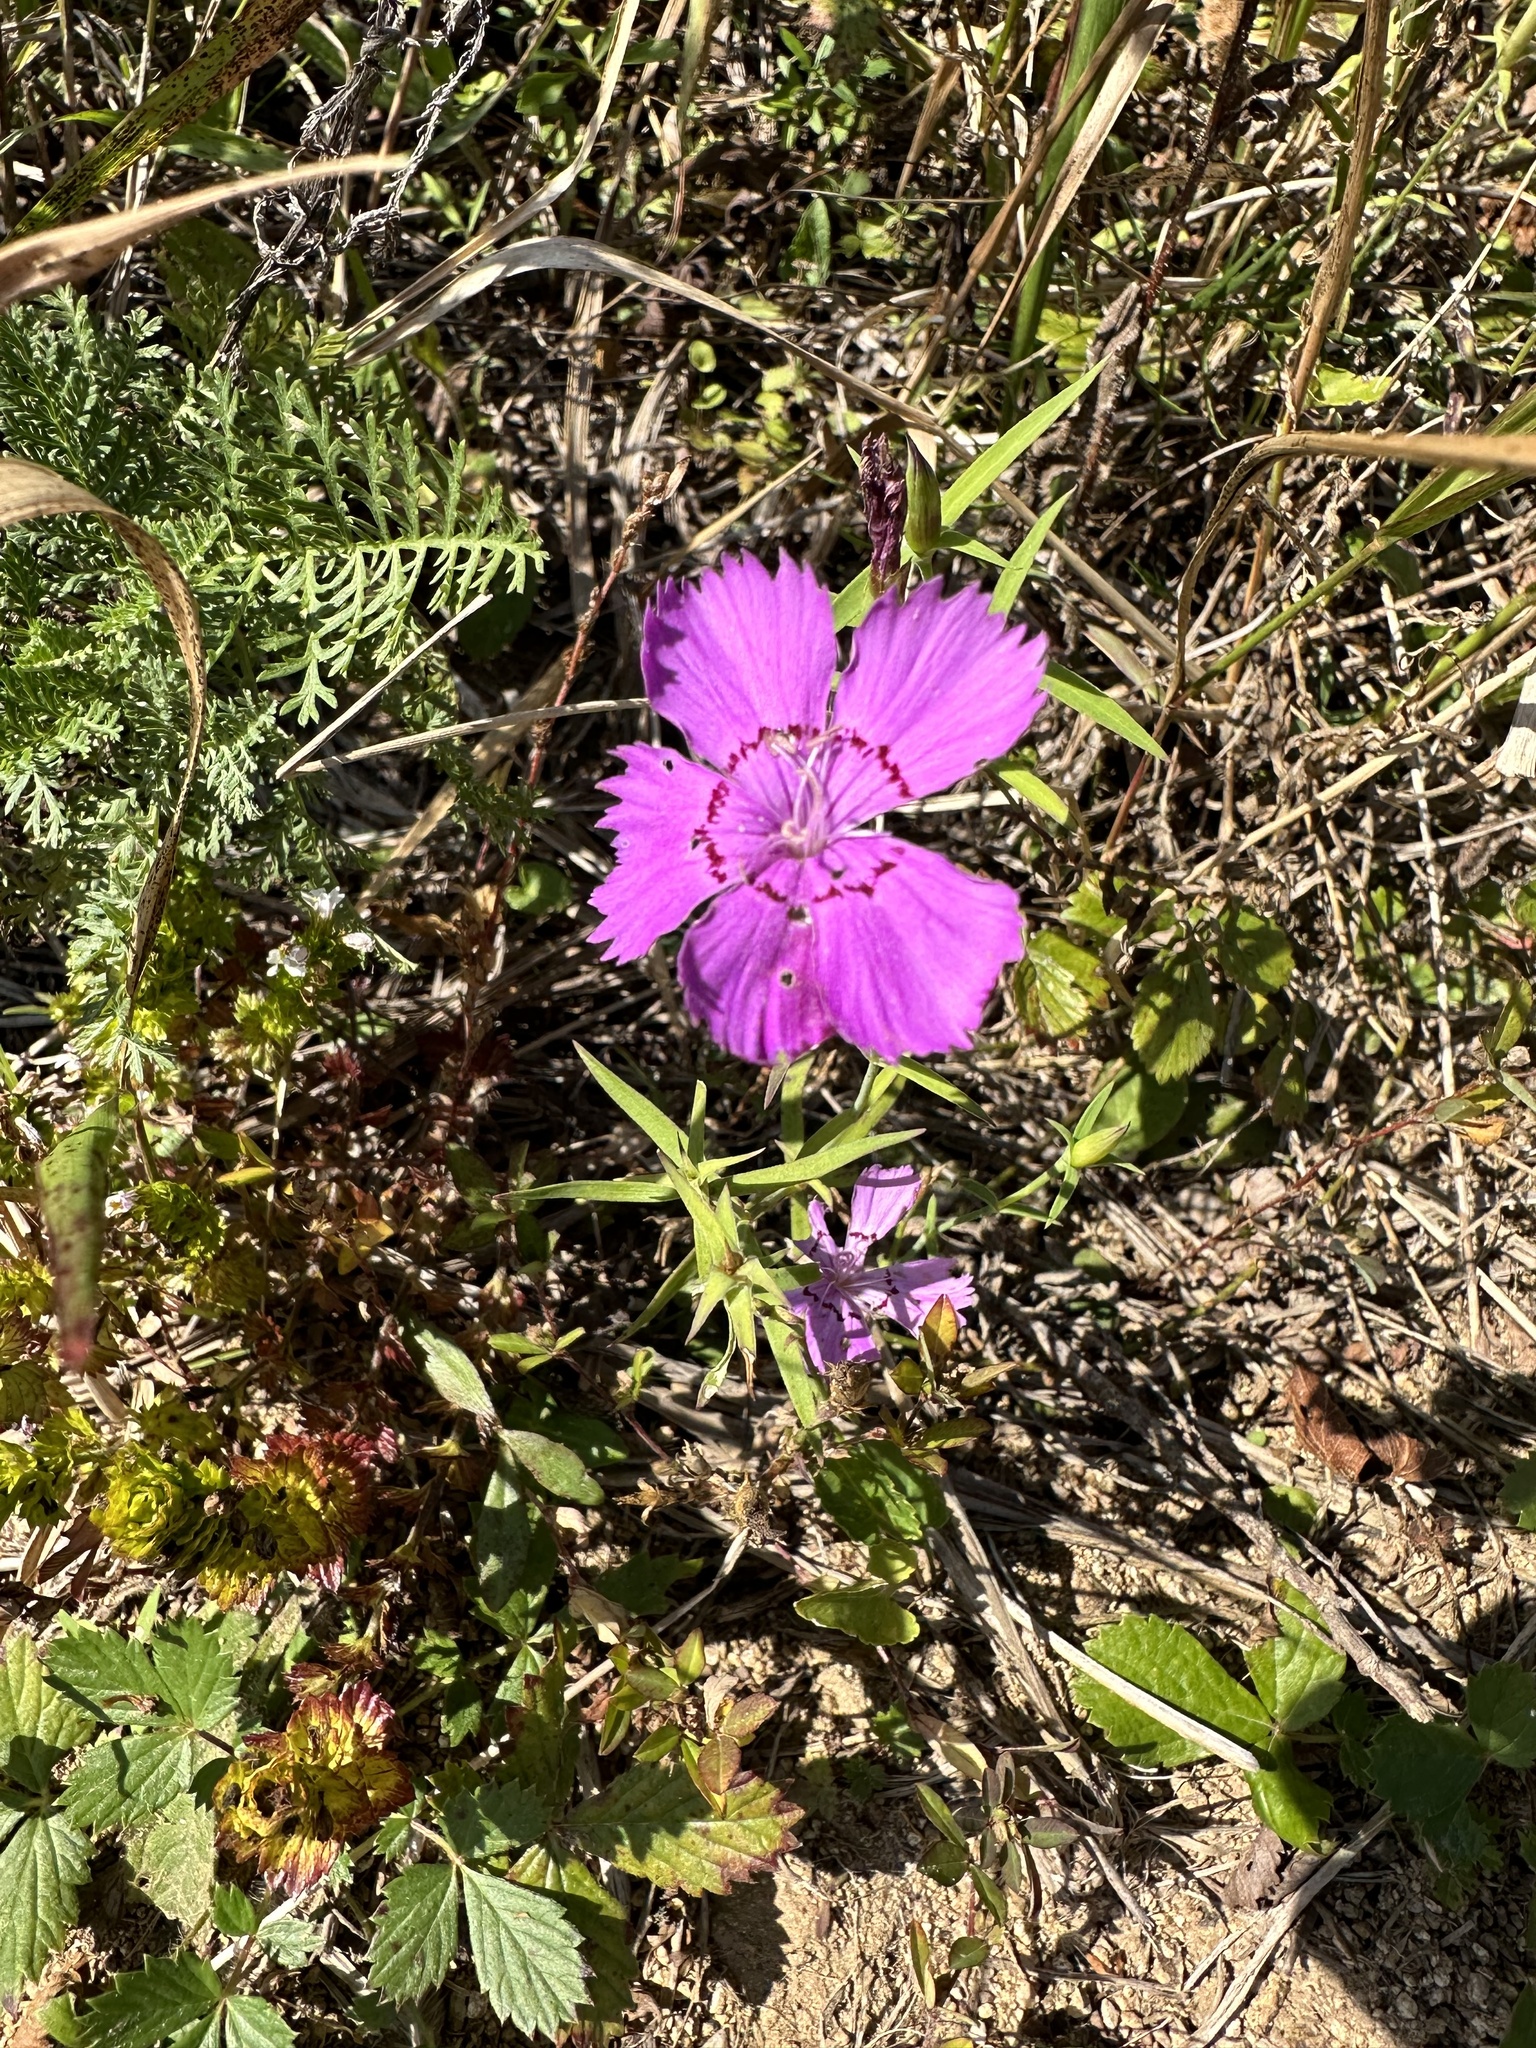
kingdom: Plantae
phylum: Tracheophyta
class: Magnoliopsida
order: Caryophyllales
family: Caryophyllaceae
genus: Dianthus
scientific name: Dianthus chinensis
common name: Rainbow pink
